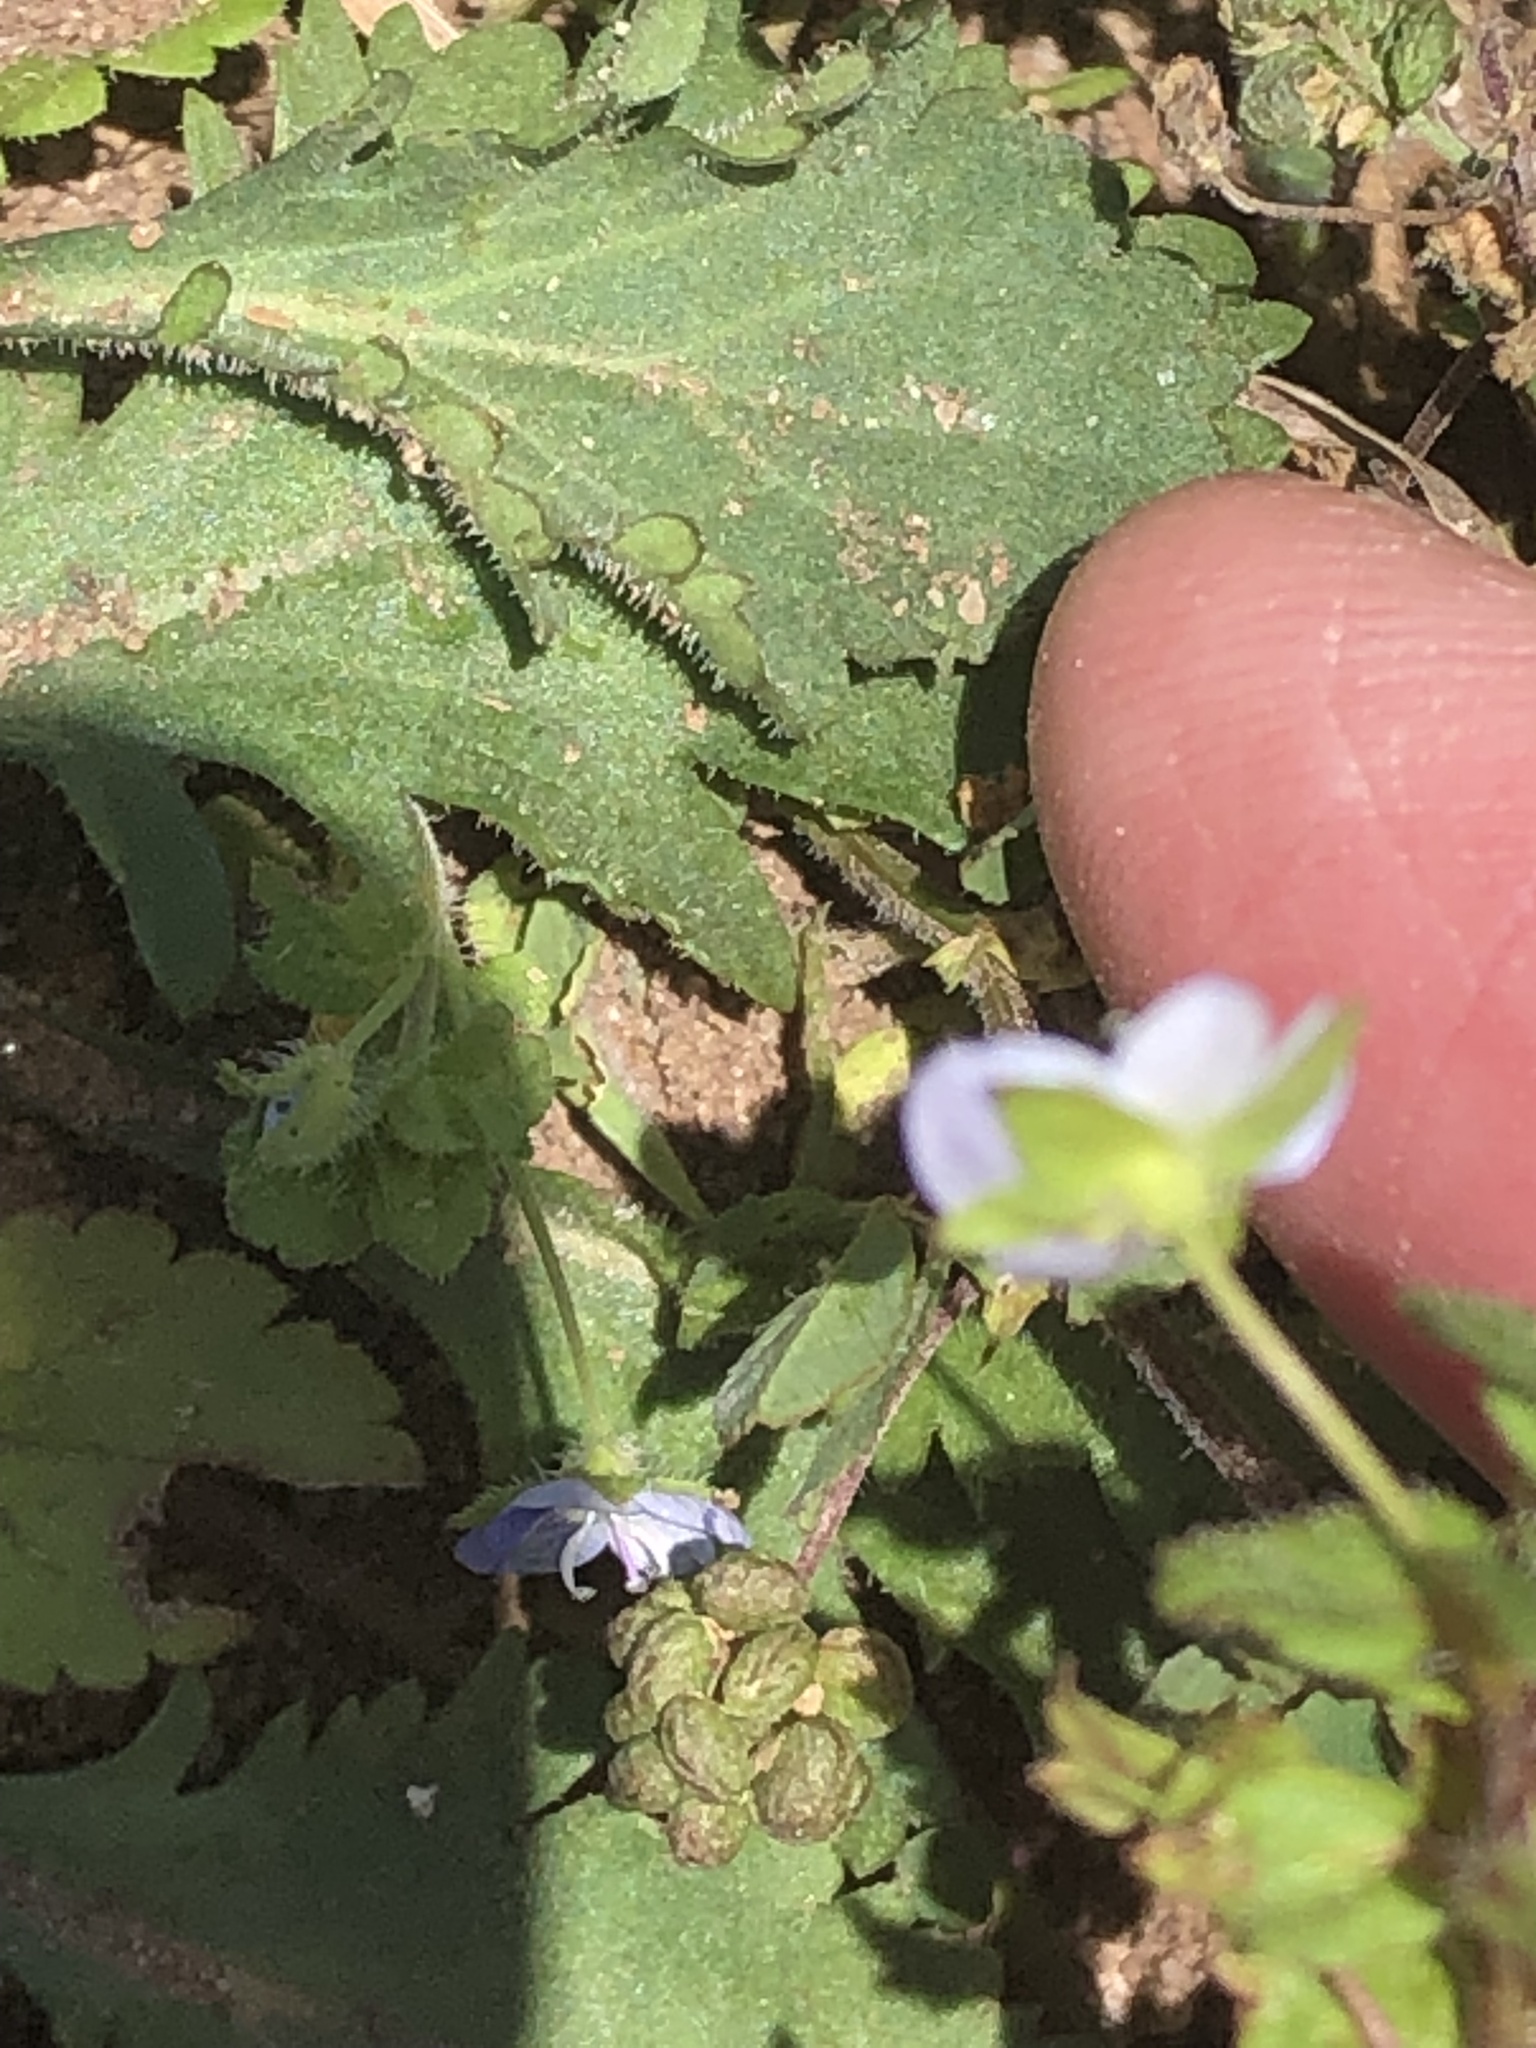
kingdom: Plantae
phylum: Tracheophyta
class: Magnoliopsida
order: Lamiales
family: Plantaginaceae
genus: Veronica
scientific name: Veronica persica
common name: Common field-speedwell
